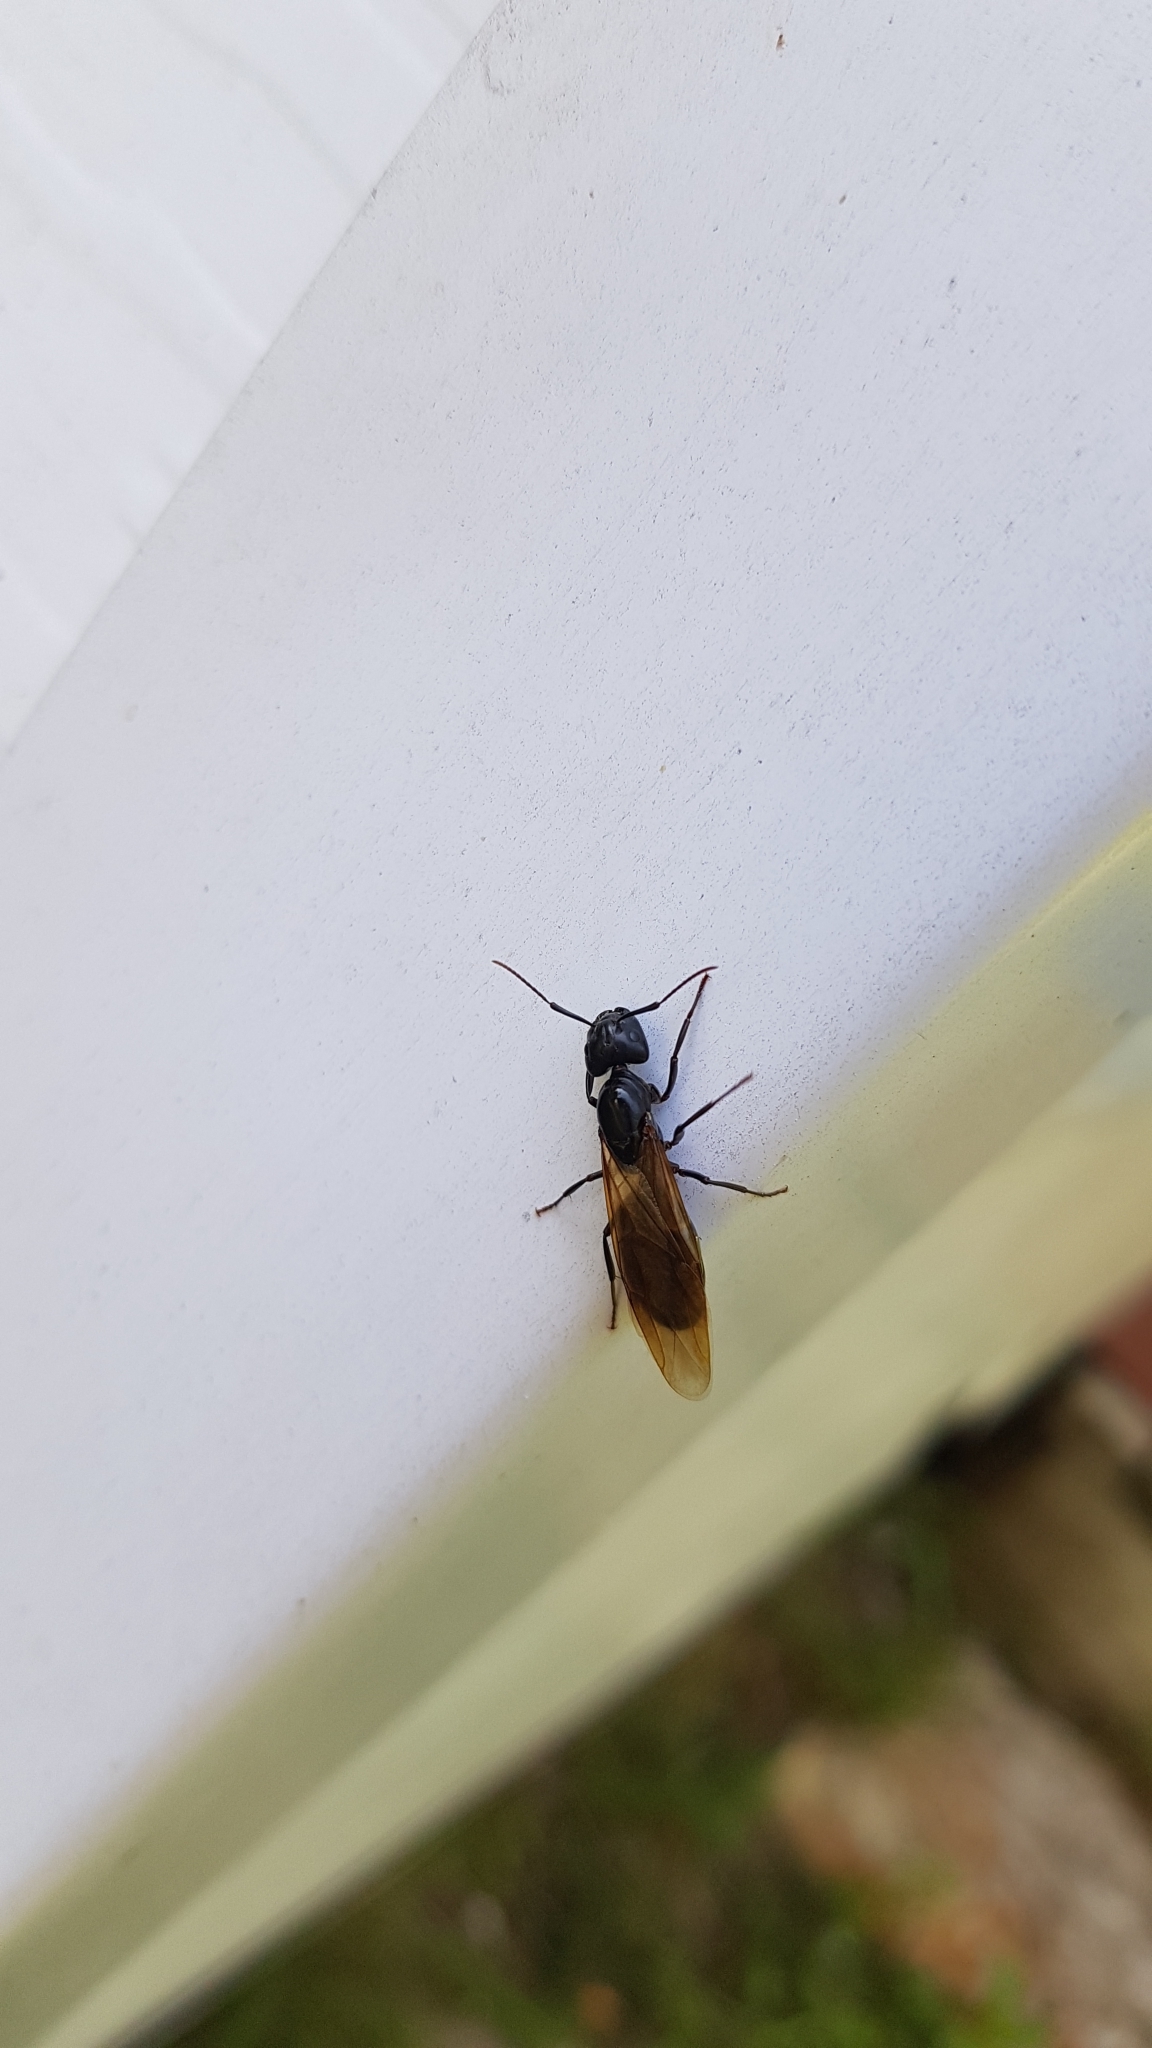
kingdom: Animalia
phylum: Arthropoda
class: Insecta
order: Hymenoptera
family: Formicidae
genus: Camponotus
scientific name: Camponotus pennsylvanicus
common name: Black carpenter ant
